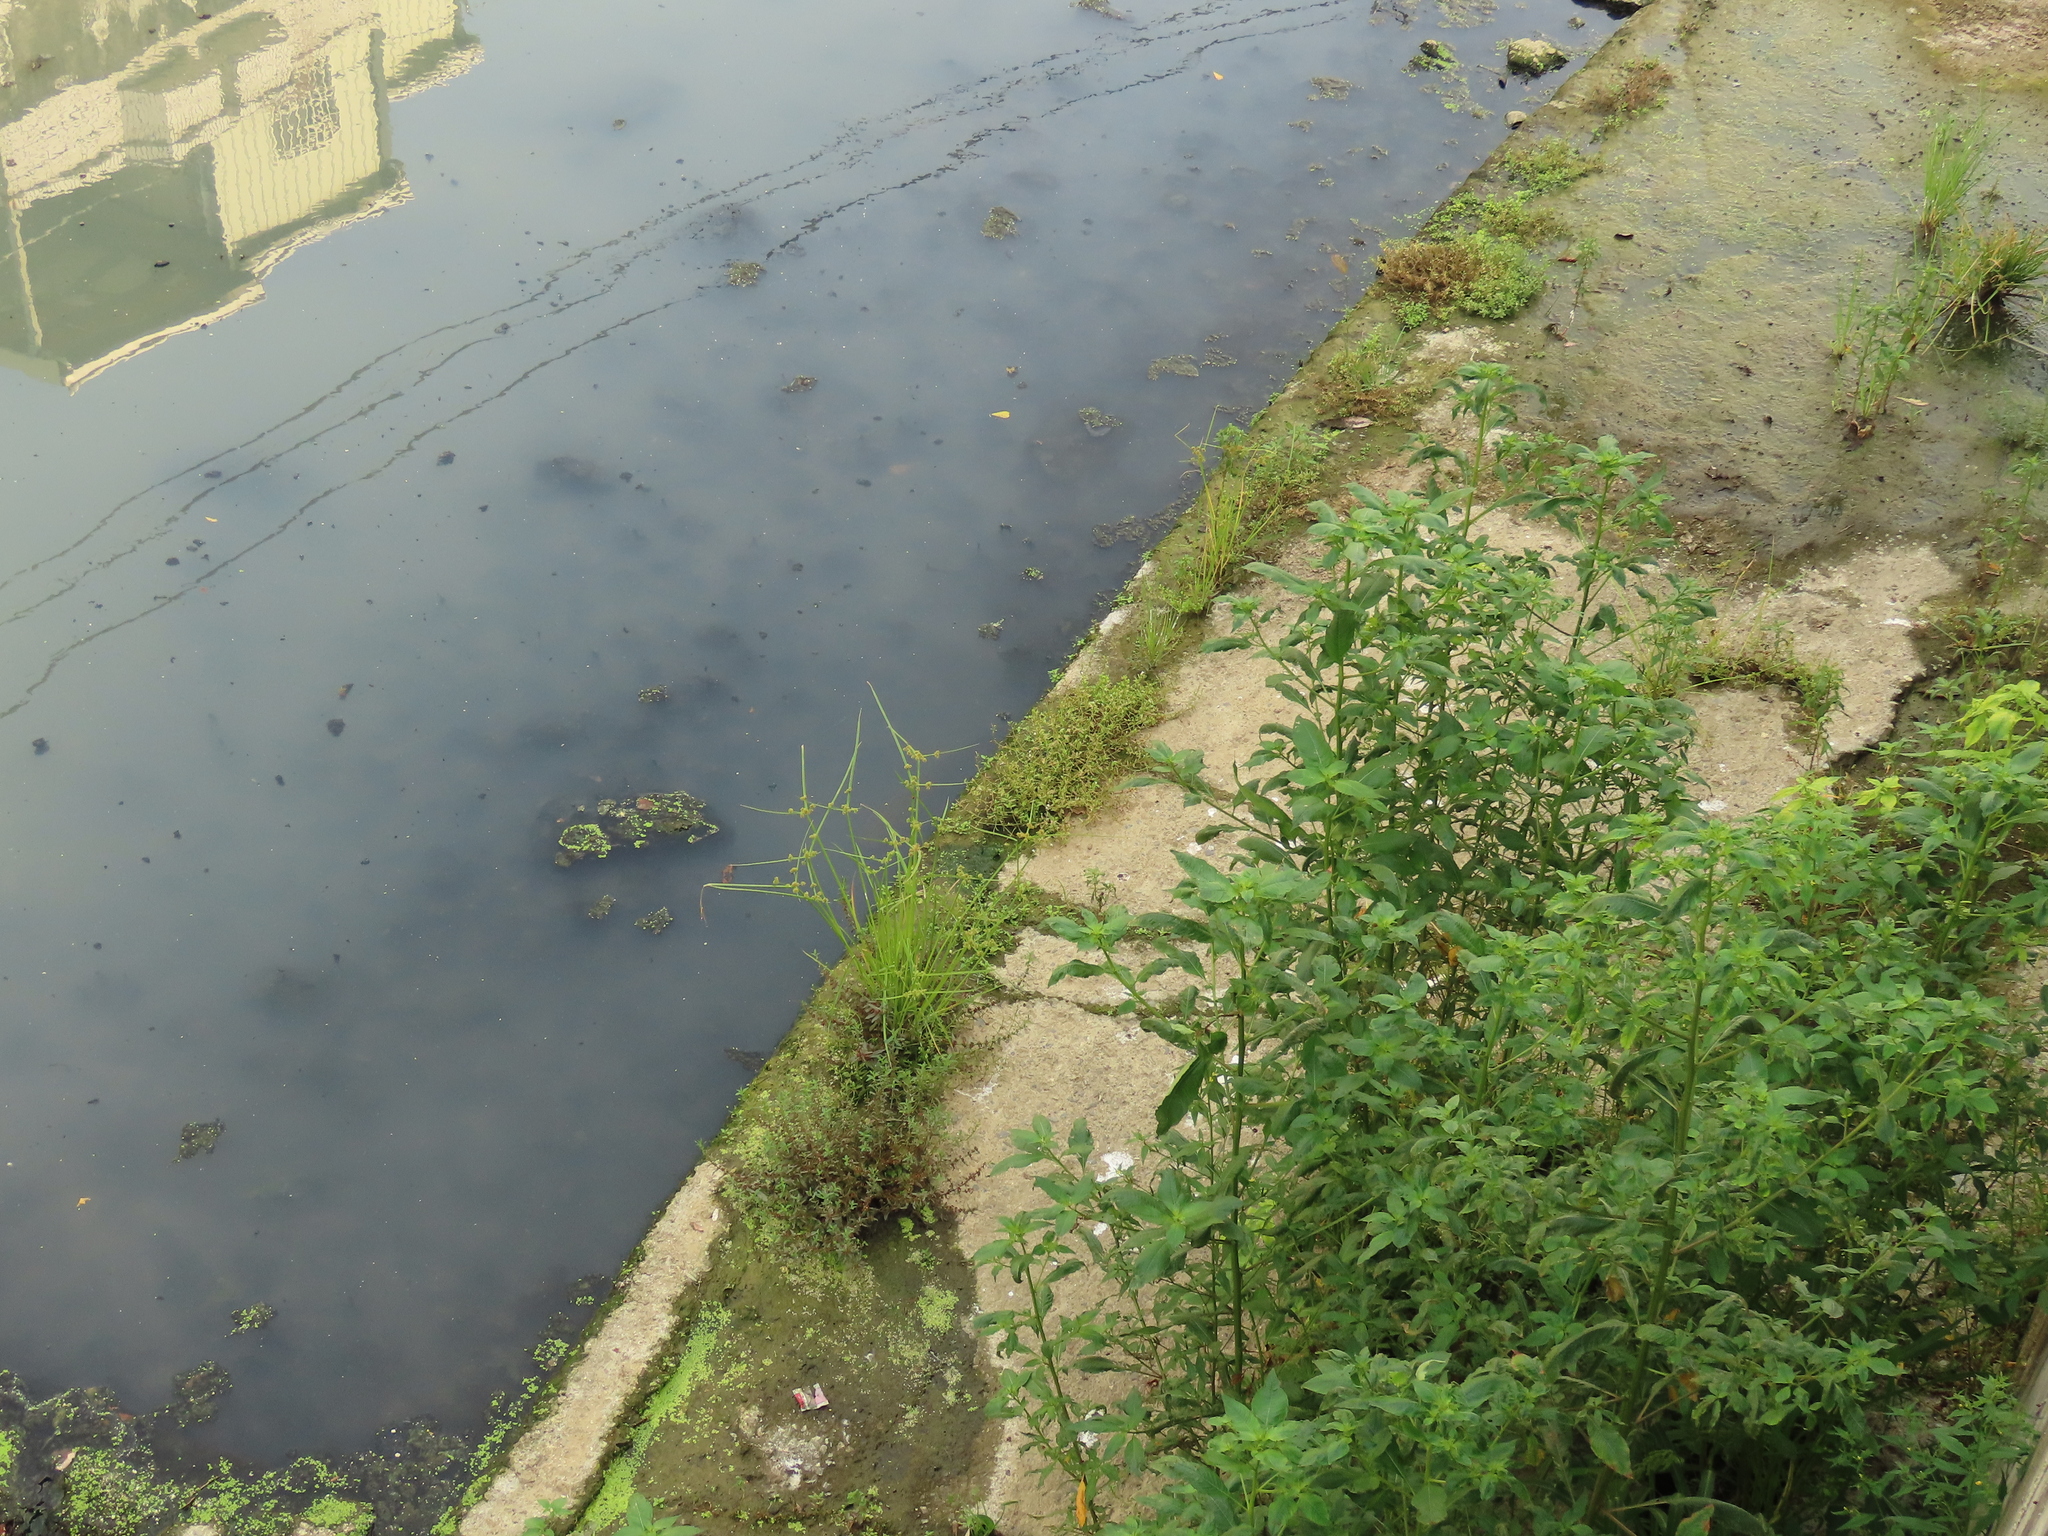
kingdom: Plantae
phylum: Tracheophyta
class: Liliopsida
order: Poales
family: Cyperaceae
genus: Cyperus
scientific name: Cyperus difformis
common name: Variable flatsedge
